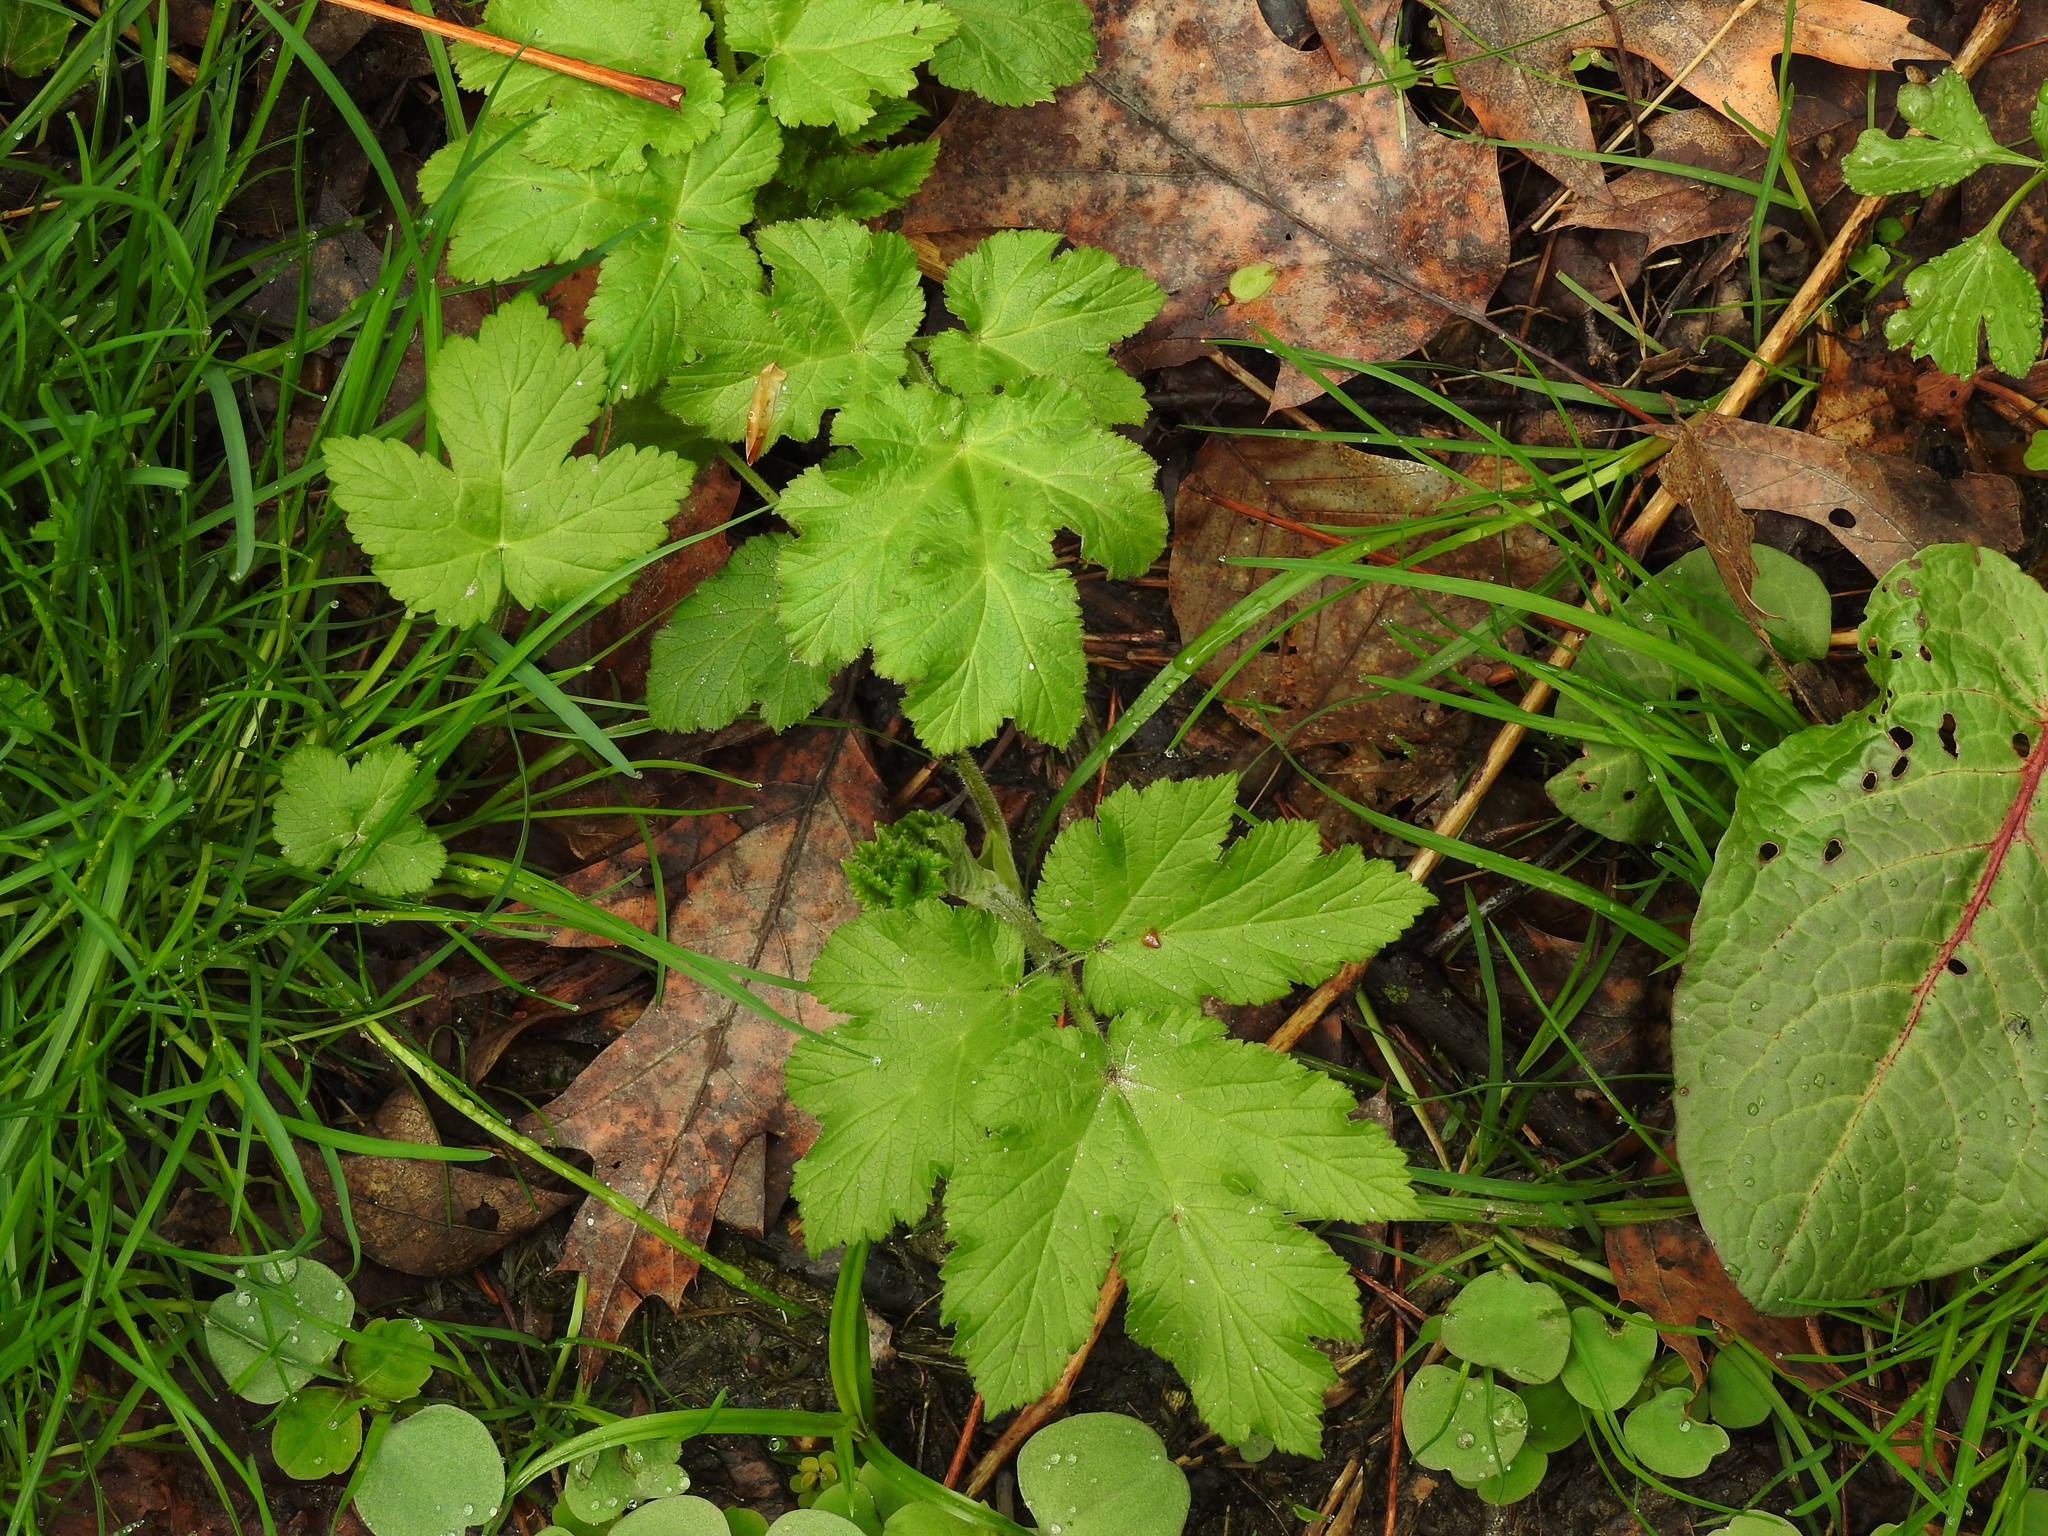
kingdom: Plantae
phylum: Tracheophyta
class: Magnoliopsida
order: Apiales
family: Apiaceae
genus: Heracleum
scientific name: Heracleum maximum
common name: American cow parsnip
